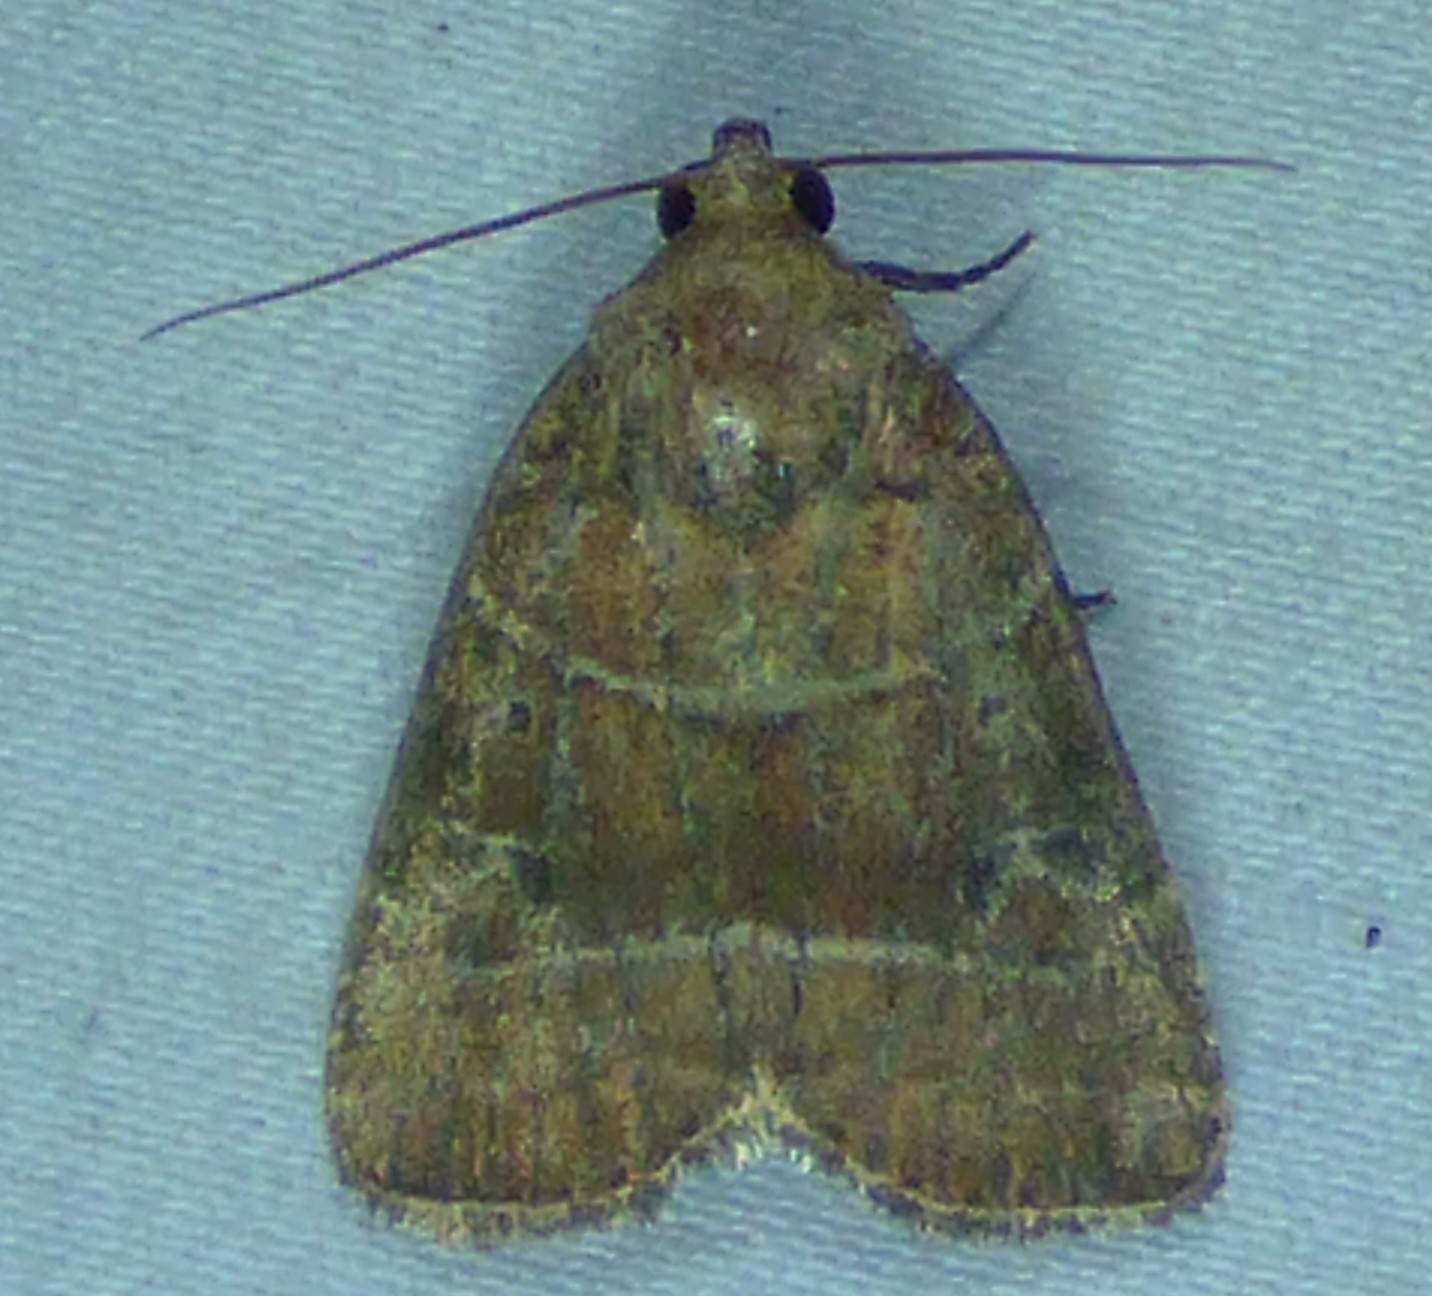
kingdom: Animalia
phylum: Arthropoda
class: Insecta
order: Lepidoptera
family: Noctuidae
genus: Elaphria
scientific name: Elaphria grata
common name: Grateful midget moth
